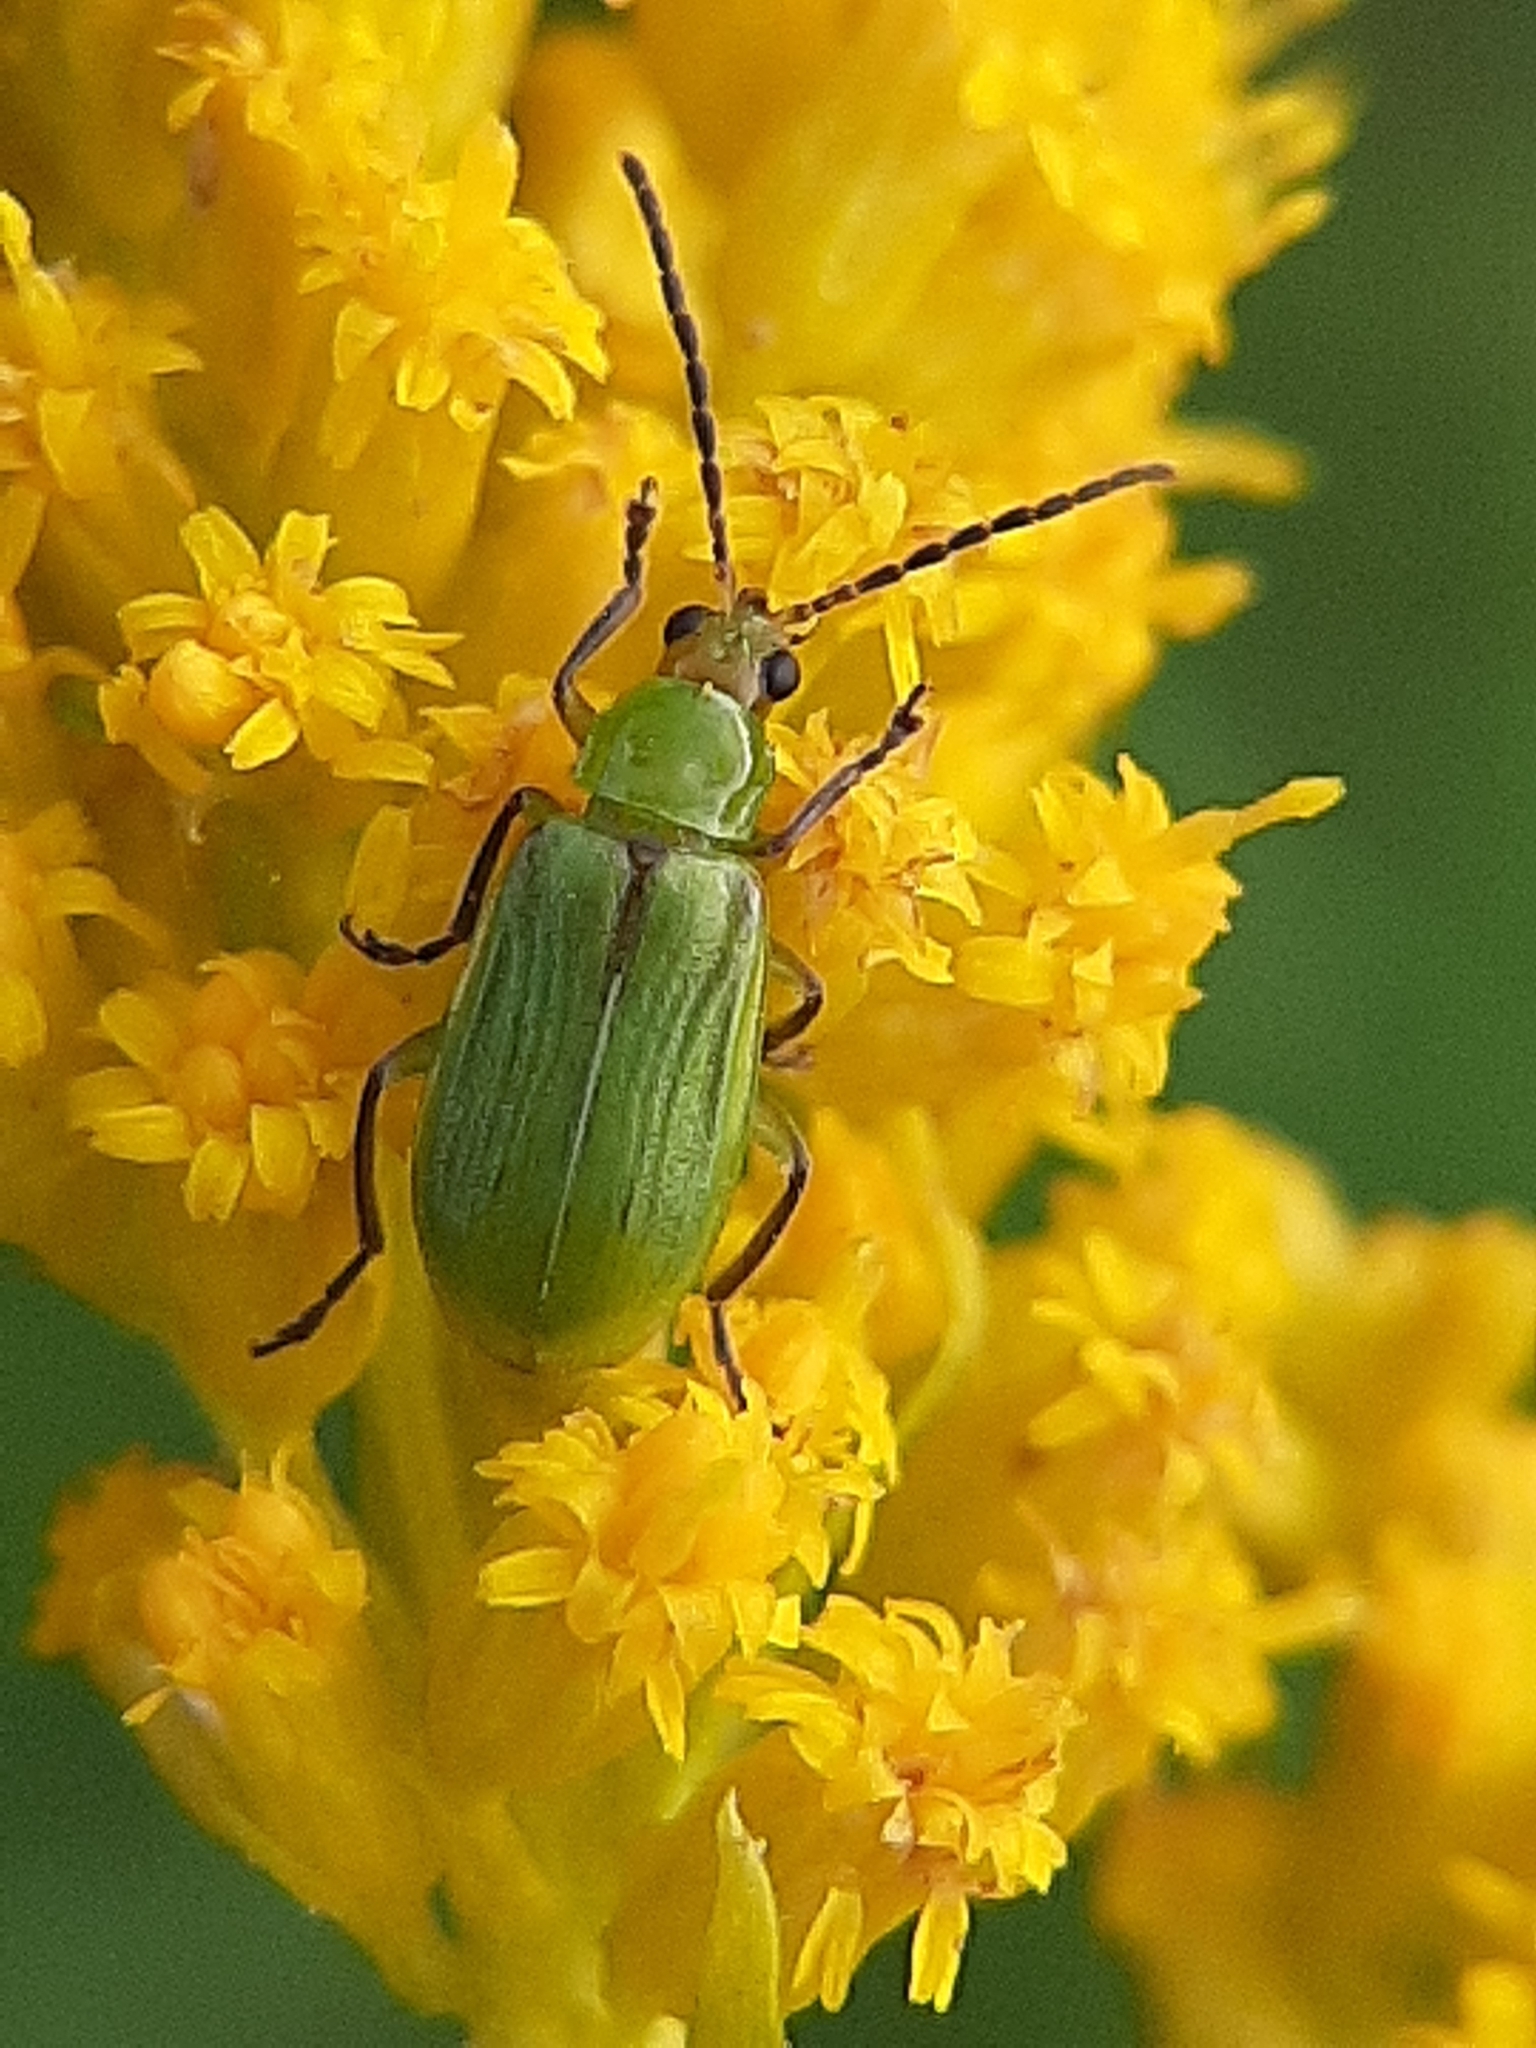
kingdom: Animalia
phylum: Arthropoda
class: Insecta
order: Coleoptera
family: Chrysomelidae
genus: Diabrotica
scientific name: Diabrotica barberi
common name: Northern corn rootworm
